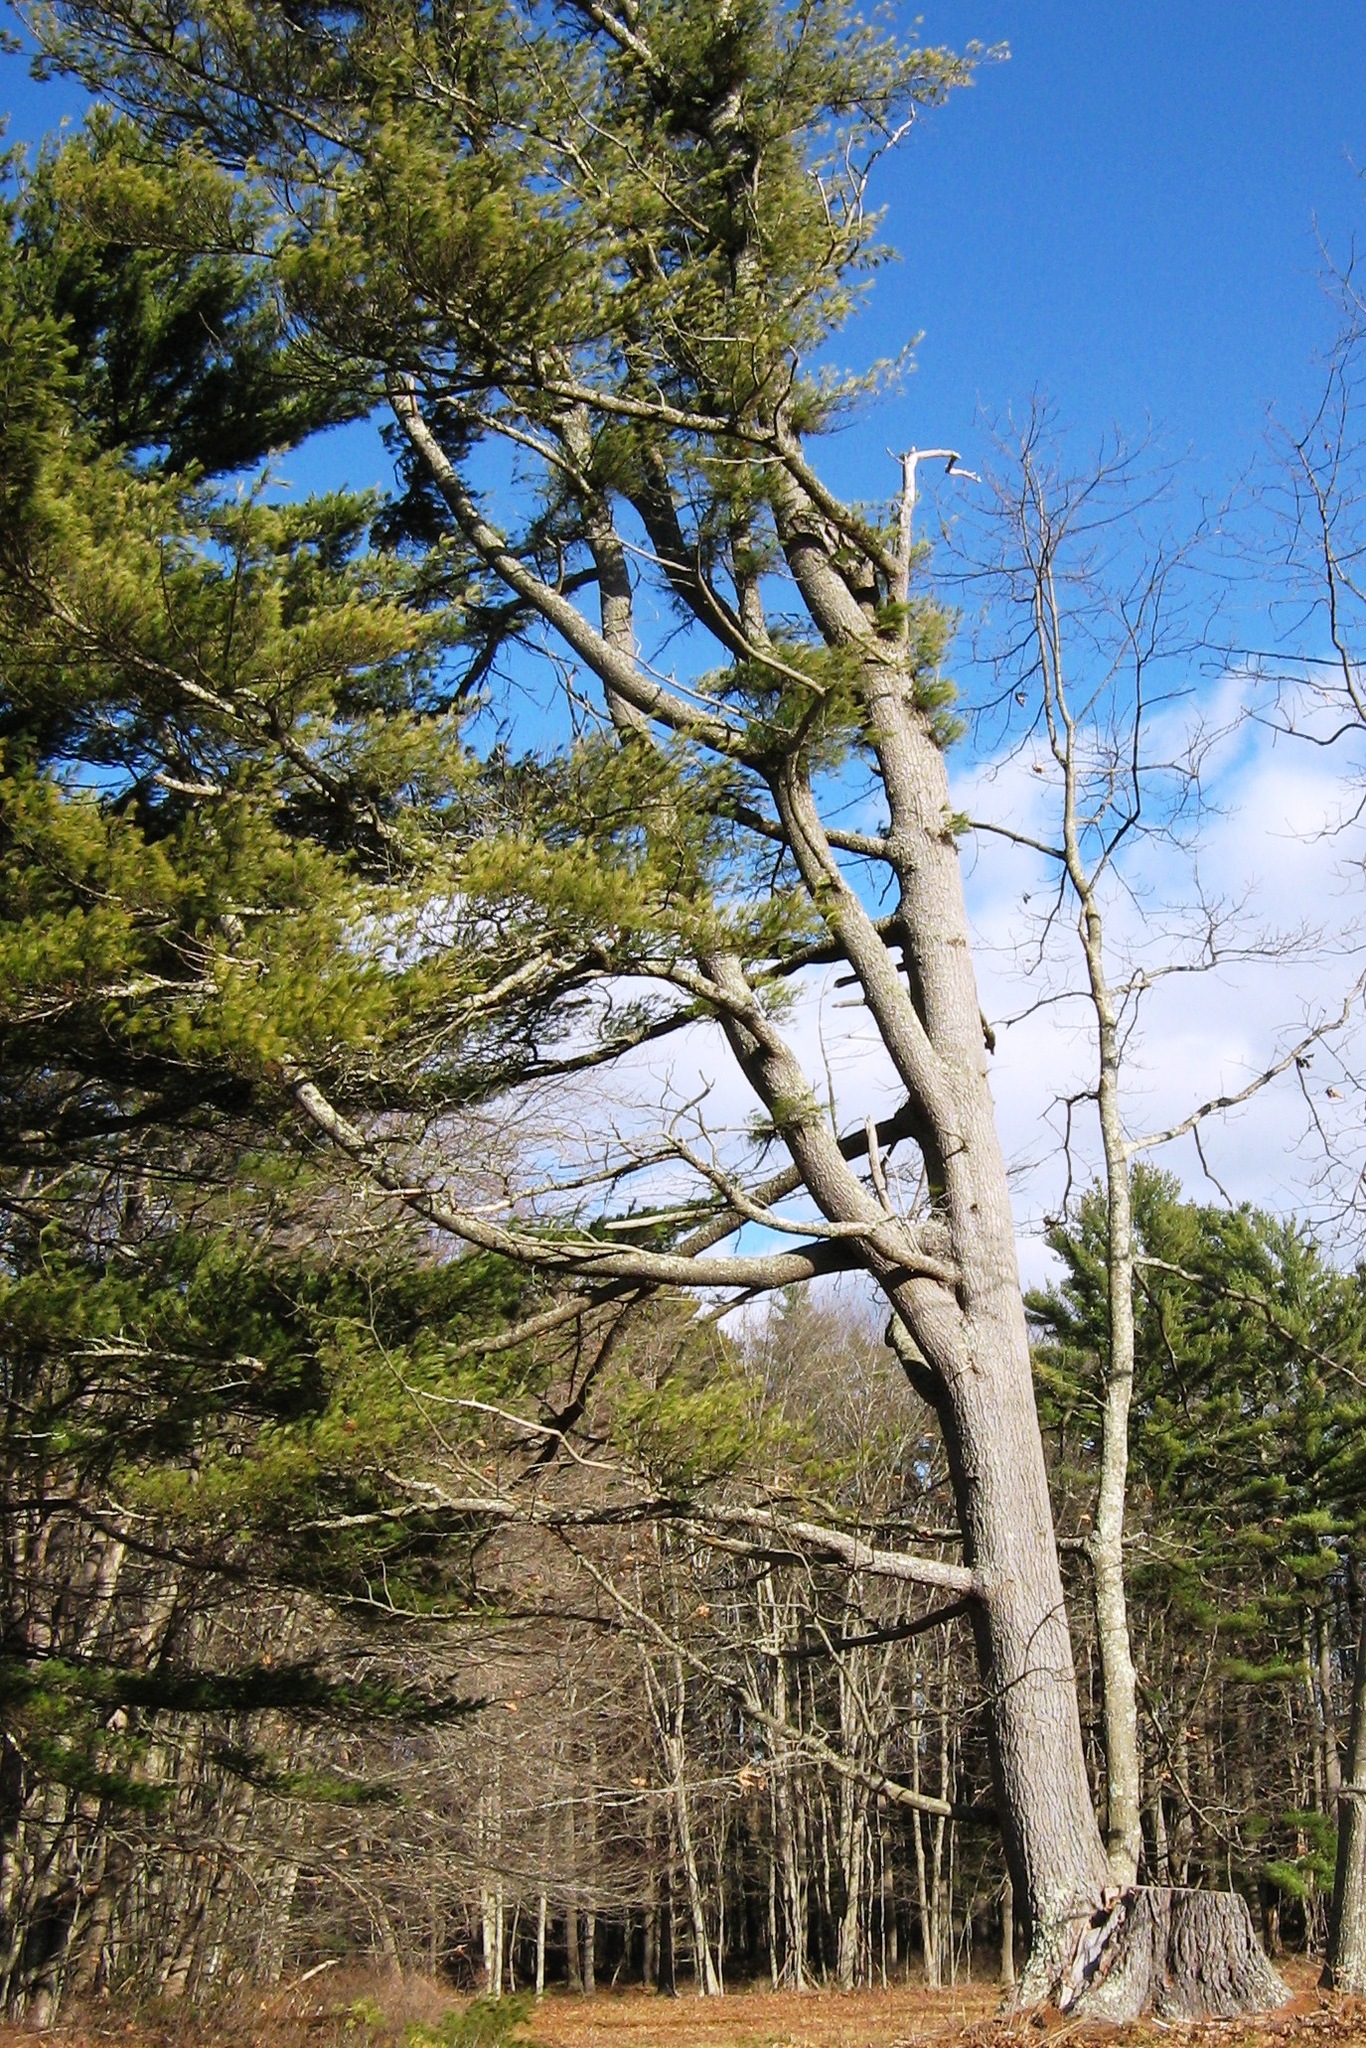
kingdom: Plantae
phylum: Tracheophyta
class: Pinopsida
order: Pinales
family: Pinaceae
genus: Pinus
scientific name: Pinus strobus
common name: Weymouth pine
